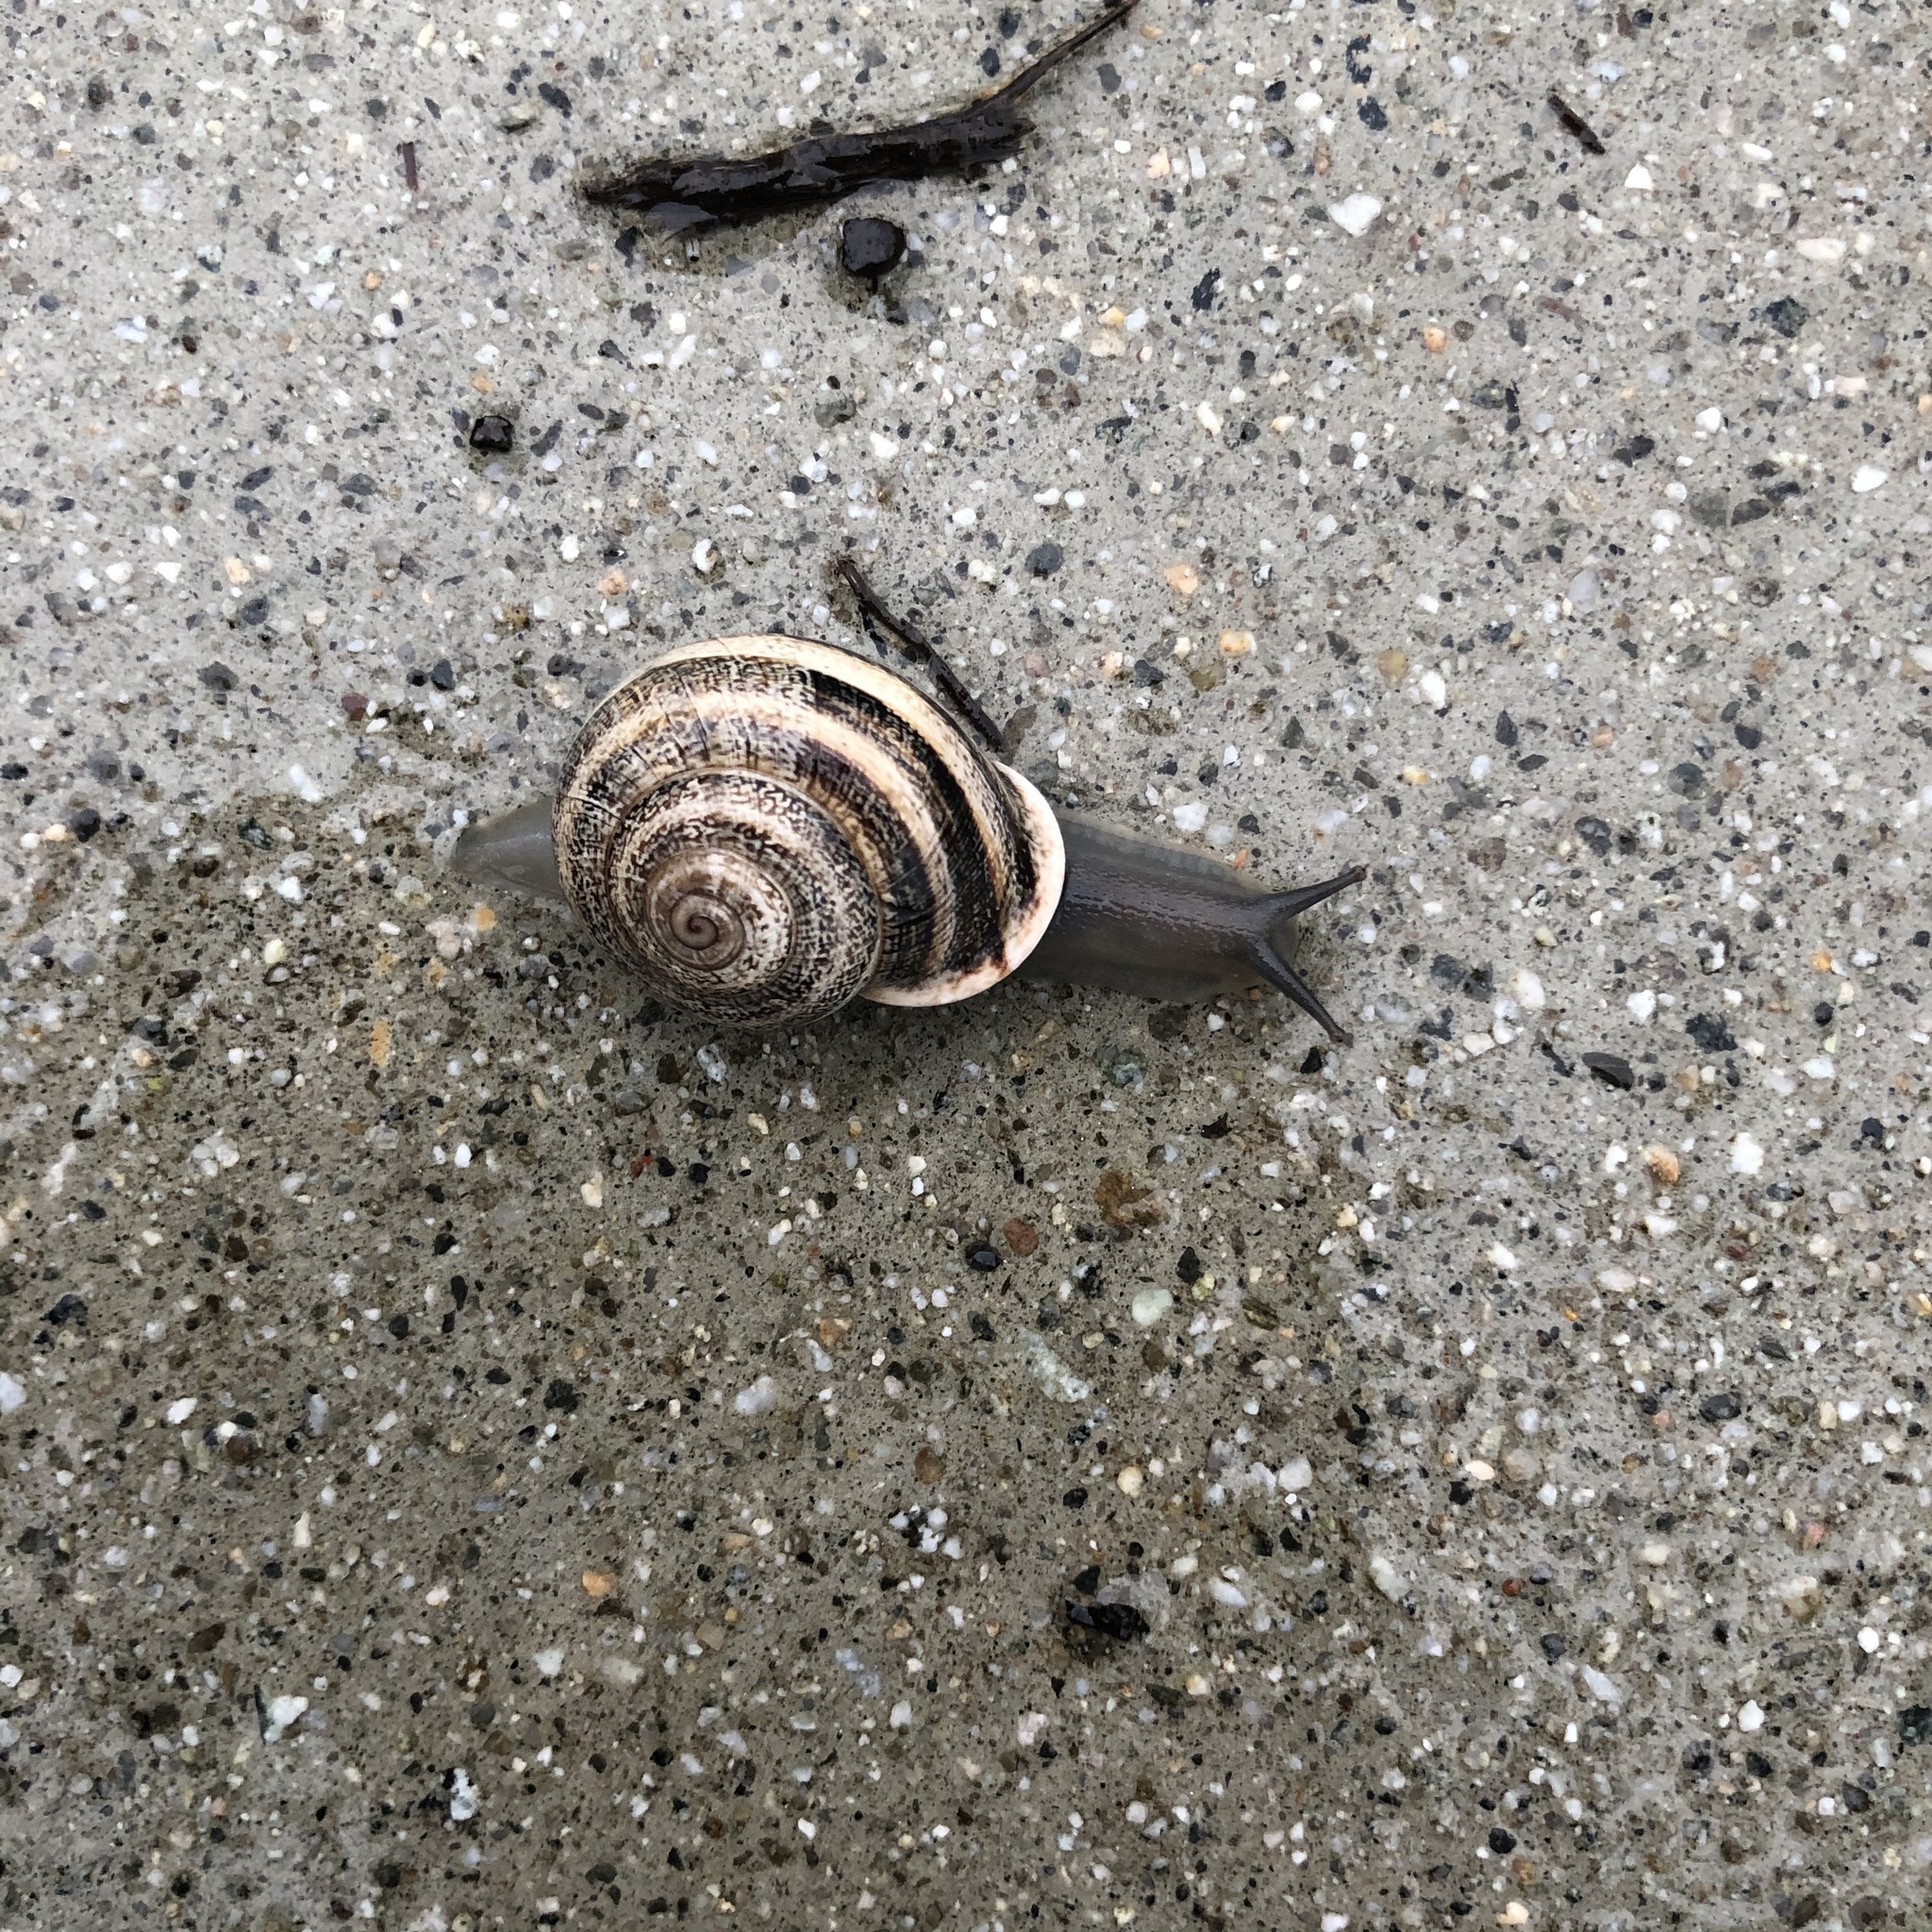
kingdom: Animalia
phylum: Mollusca
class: Gastropoda
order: Stylommatophora
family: Helicidae
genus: Otala
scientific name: Otala lactea
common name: Milk snail
